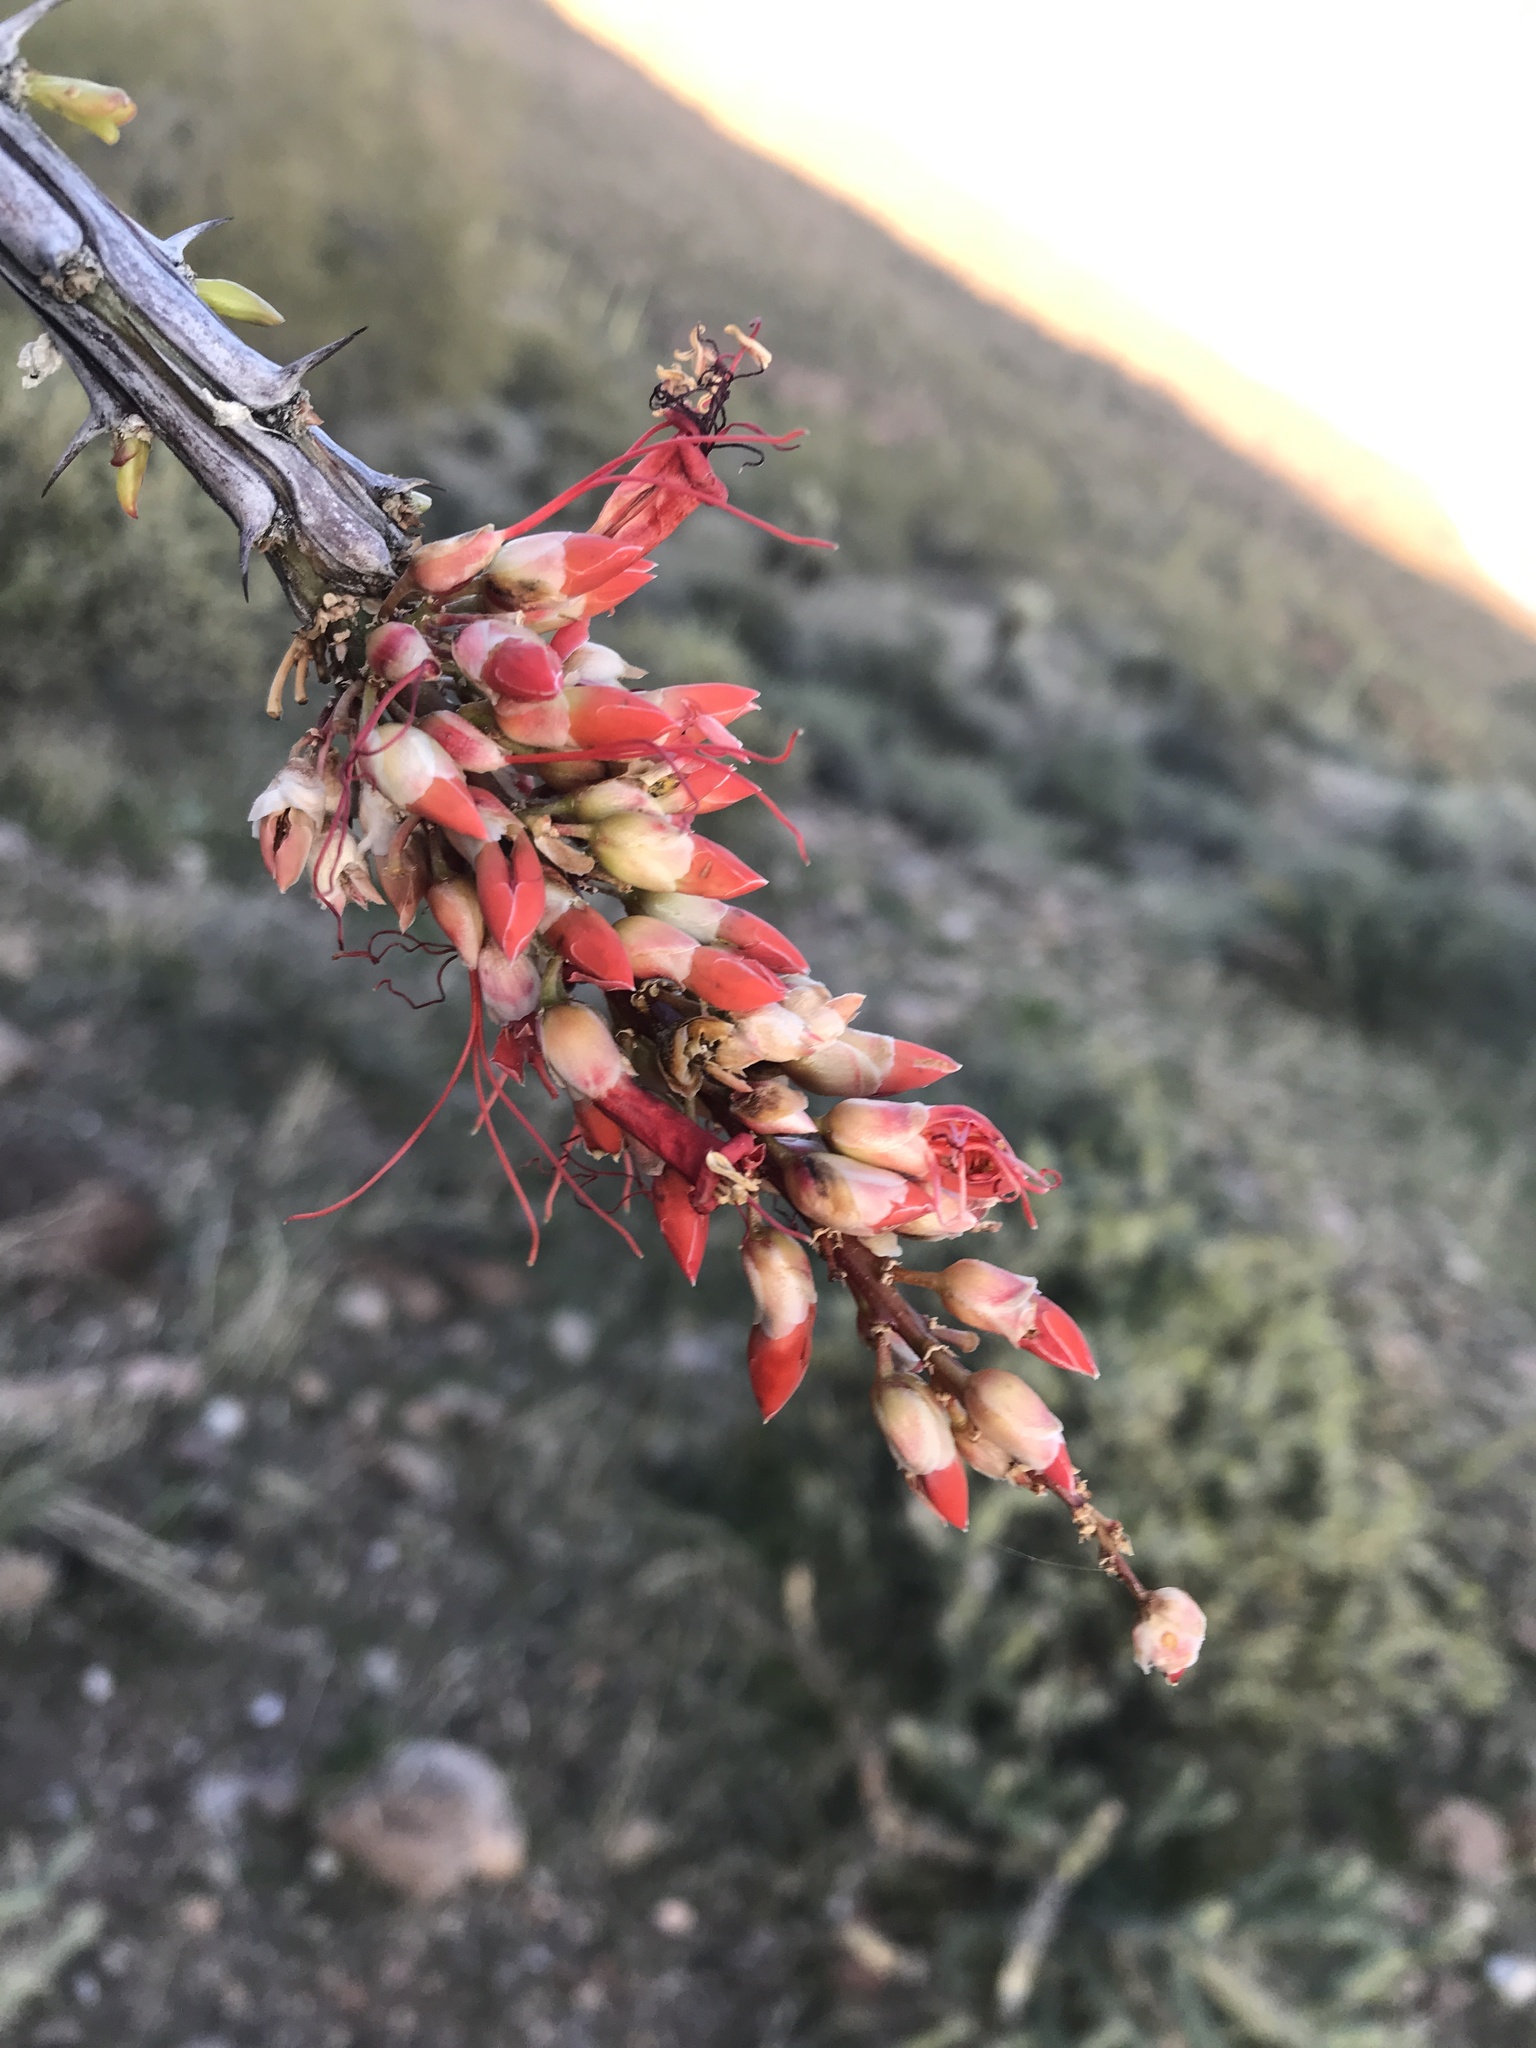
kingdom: Plantae
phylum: Tracheophyta
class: Magnoliopsida
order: Ericales
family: Fouquieriaceae
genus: Fouquieria
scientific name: Fouquieria splendens
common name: Vine-cactus
